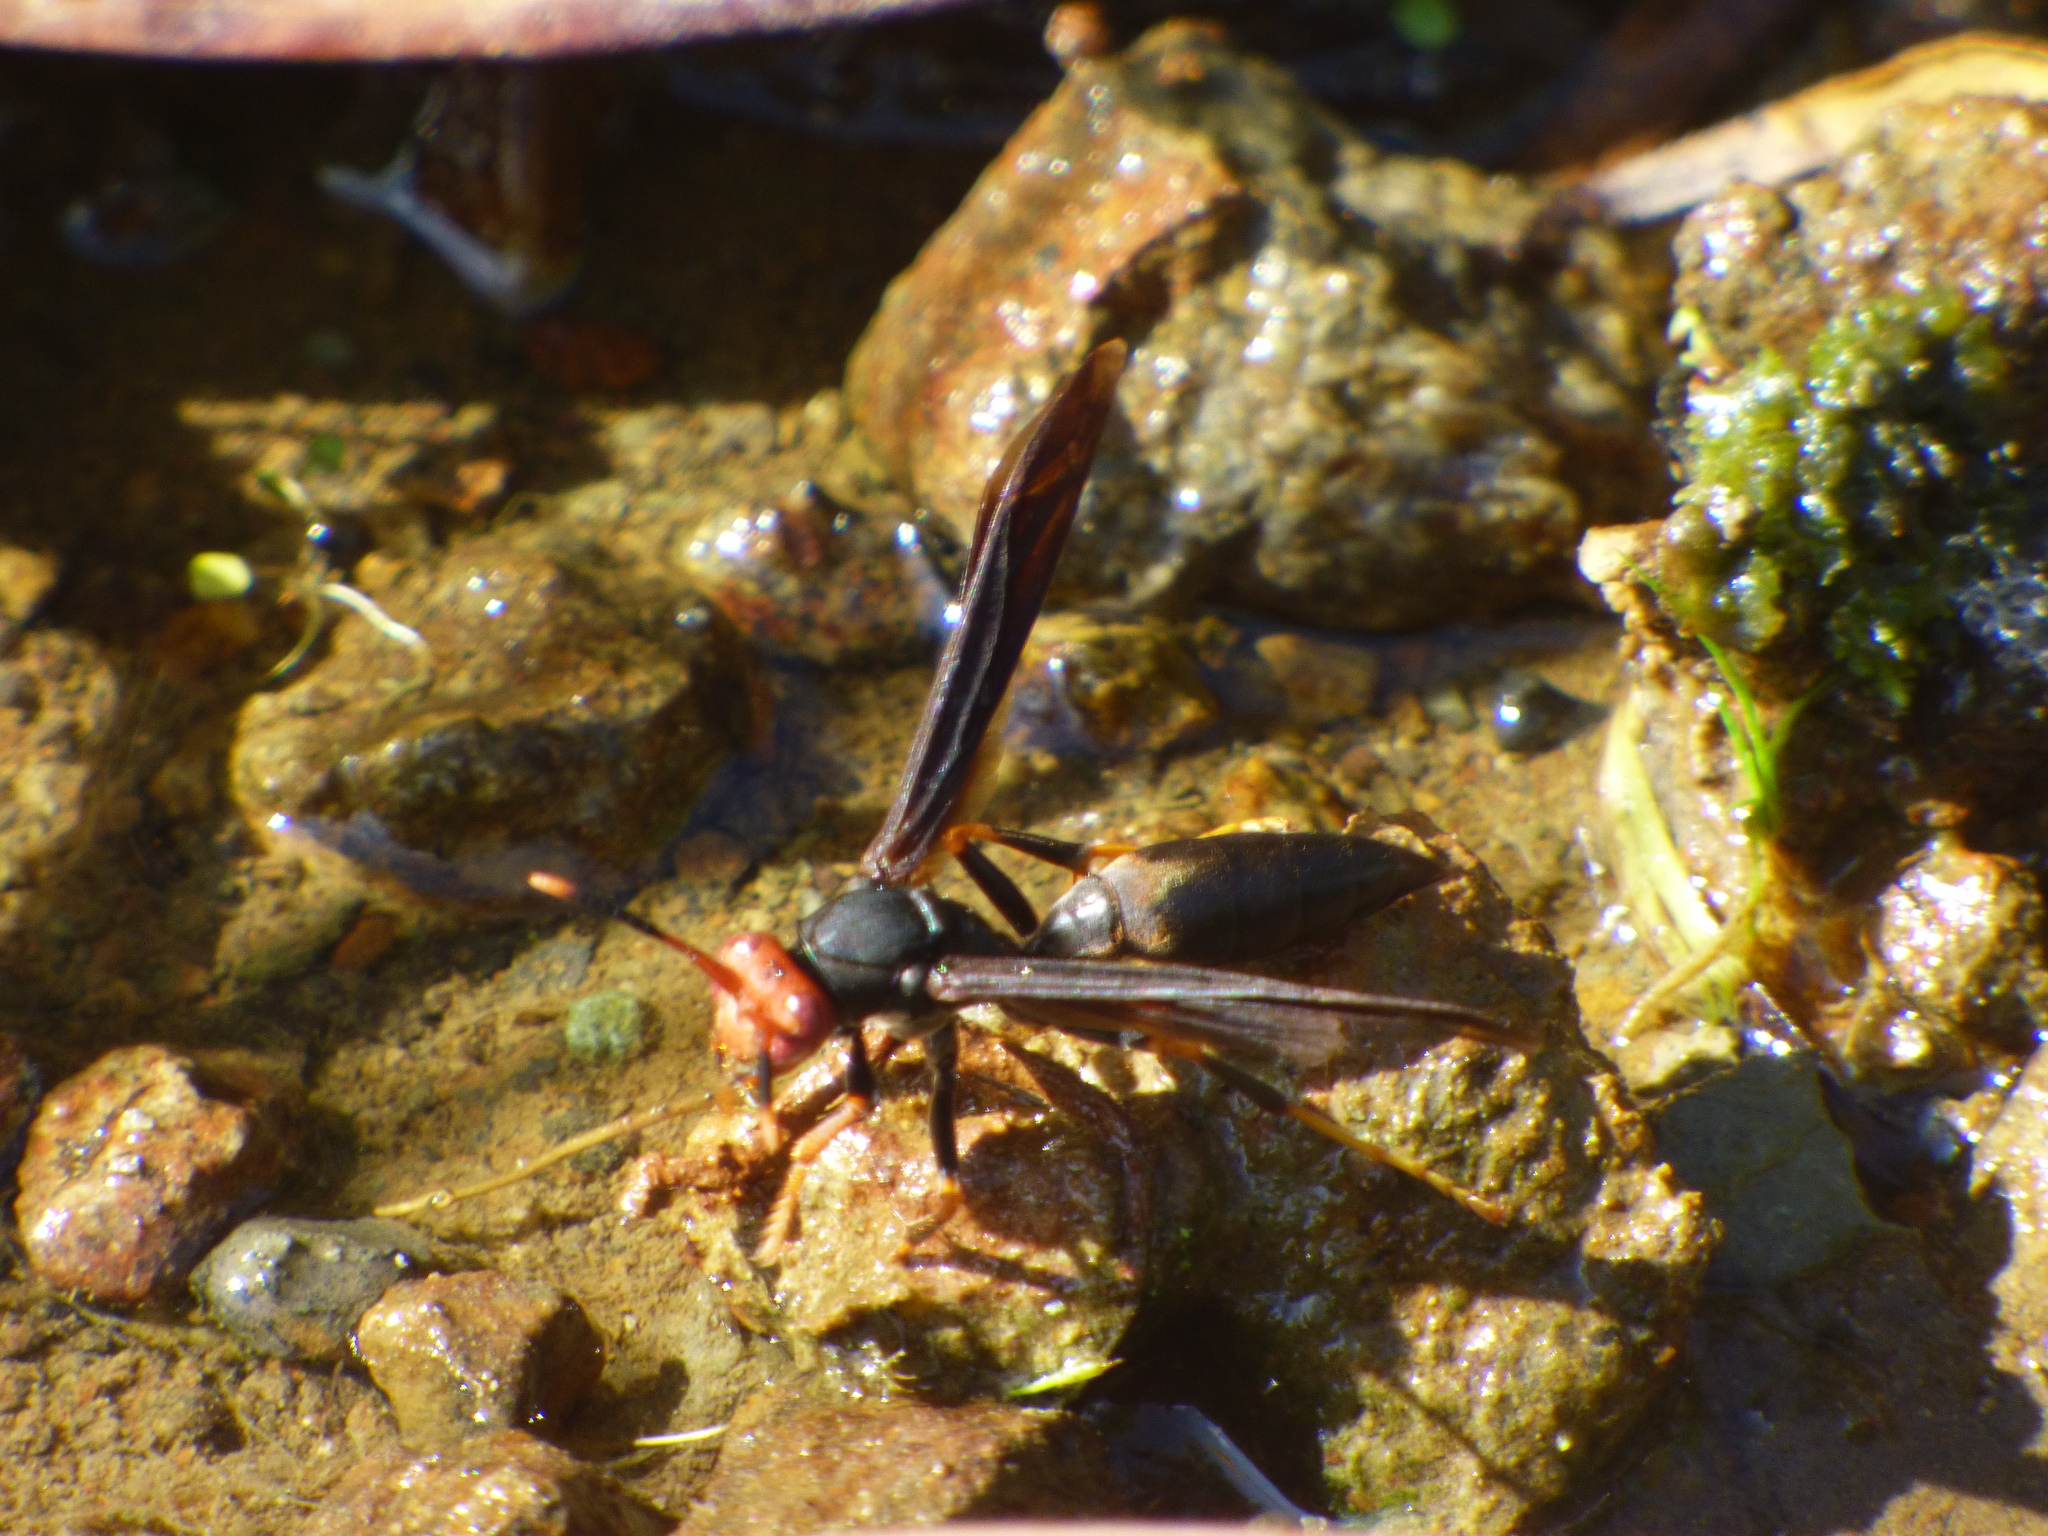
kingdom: Animalia
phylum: Arthropoda
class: Insecta
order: Hymenoptera
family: Eumenidae
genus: Polistes
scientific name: Polistes erythrocephalus
